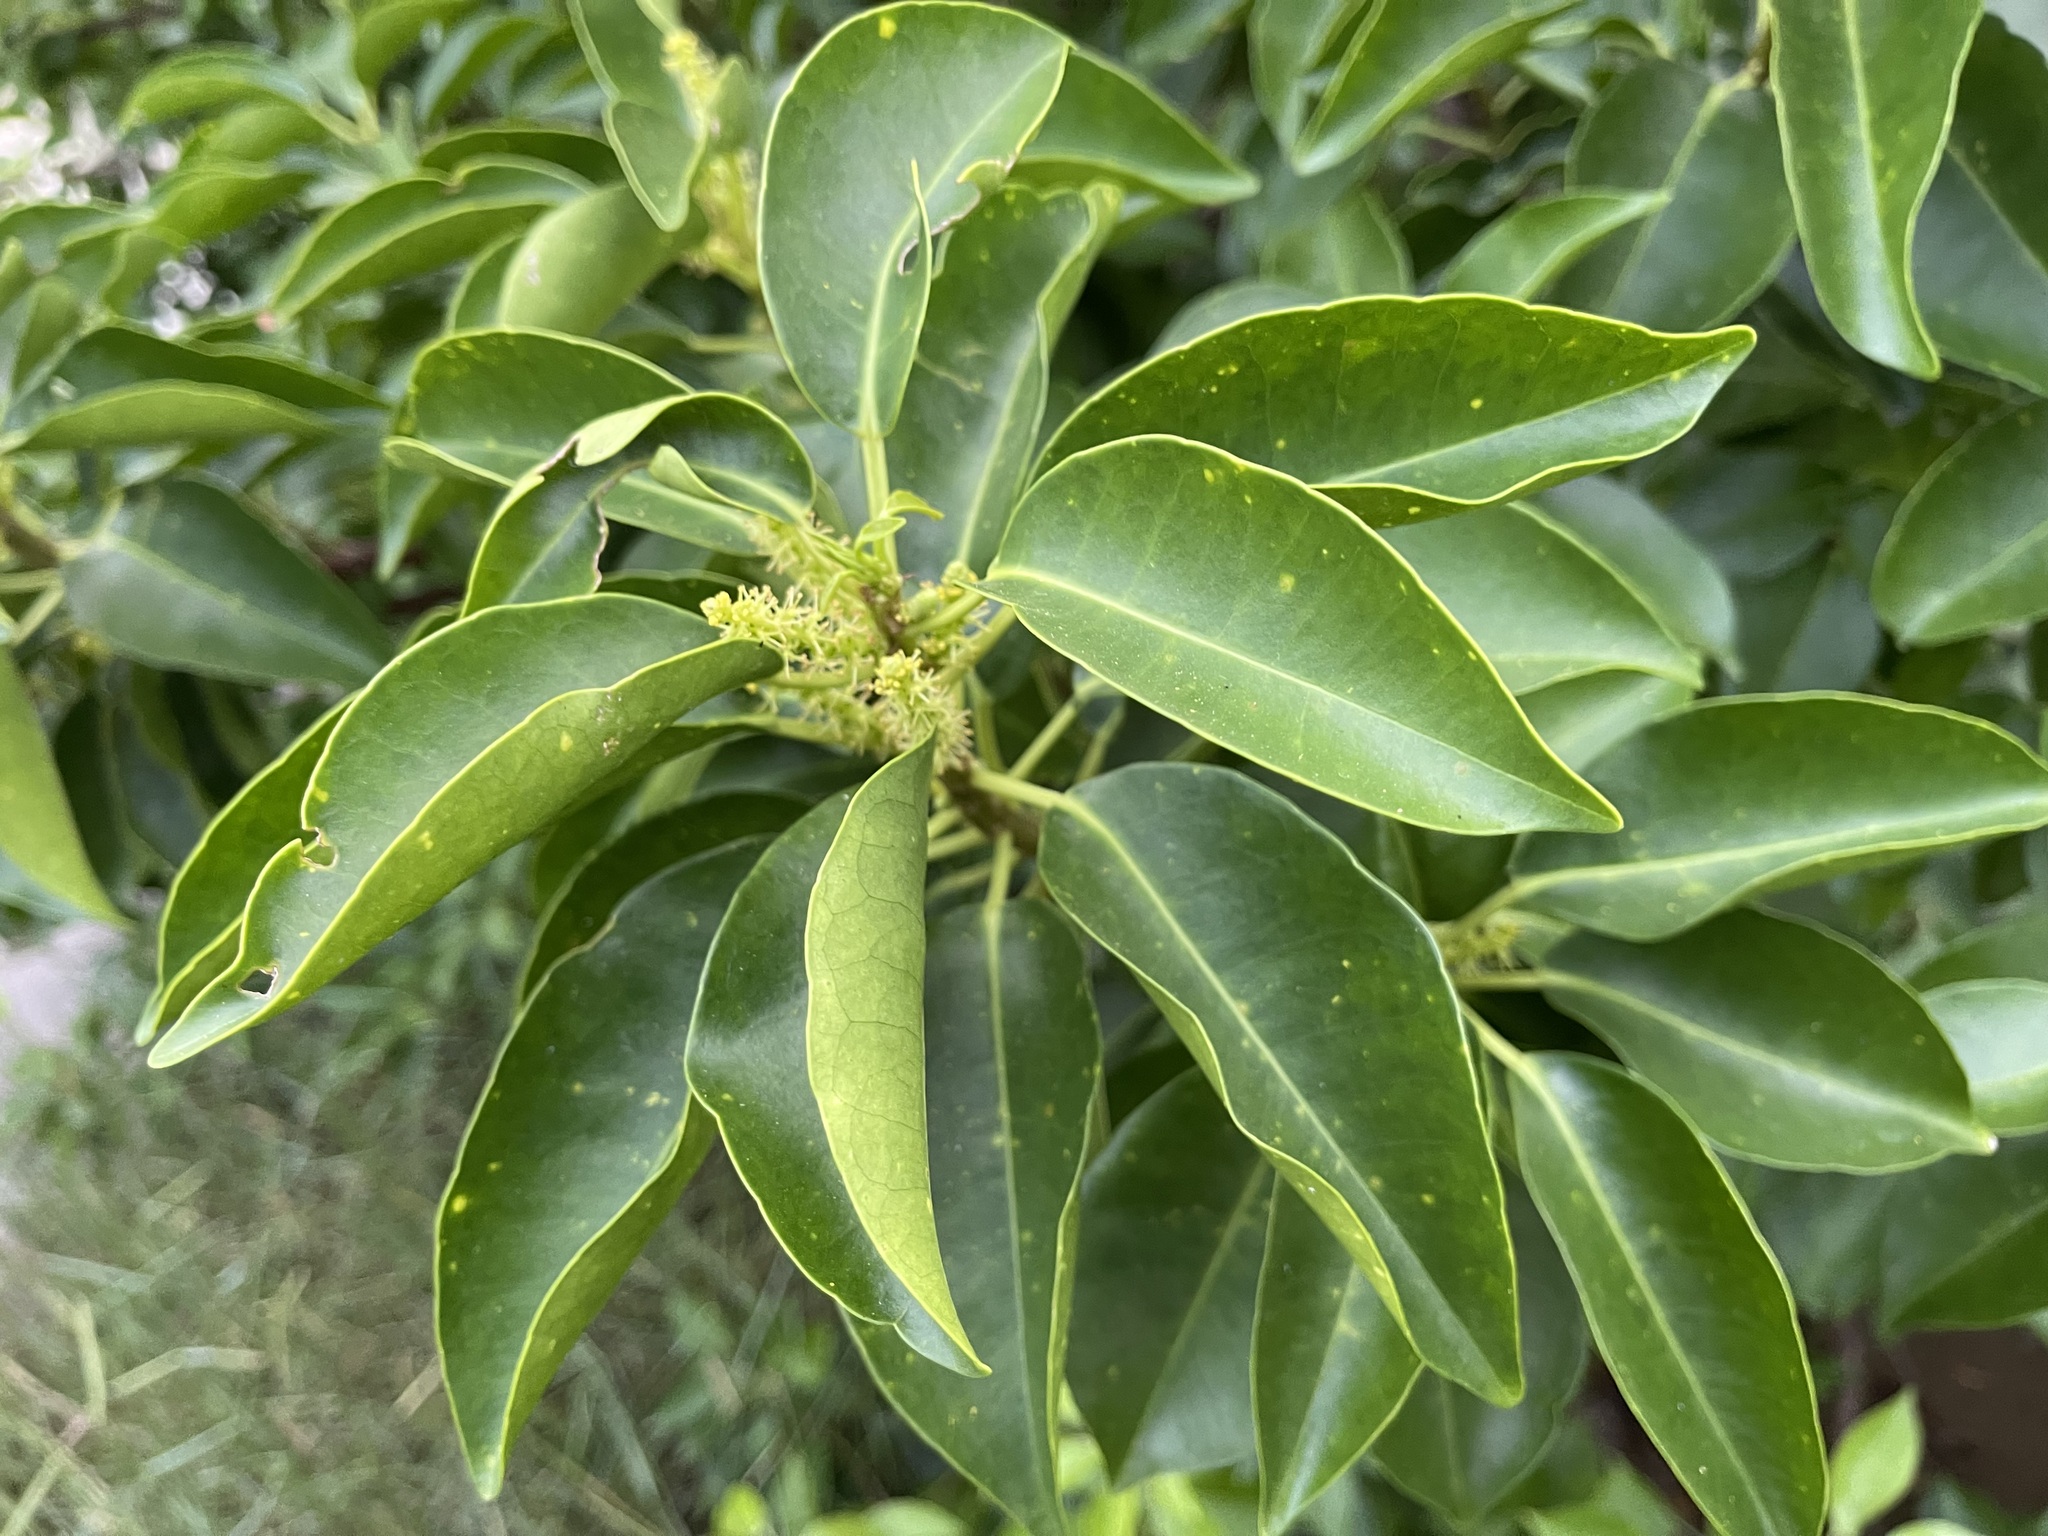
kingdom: Plantae
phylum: Tracheophyta
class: Magnoliopsida
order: Malpighiales
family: Euphorbiaceae
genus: Excoecaria
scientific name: Excoecaria agallocha
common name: River poisontree
